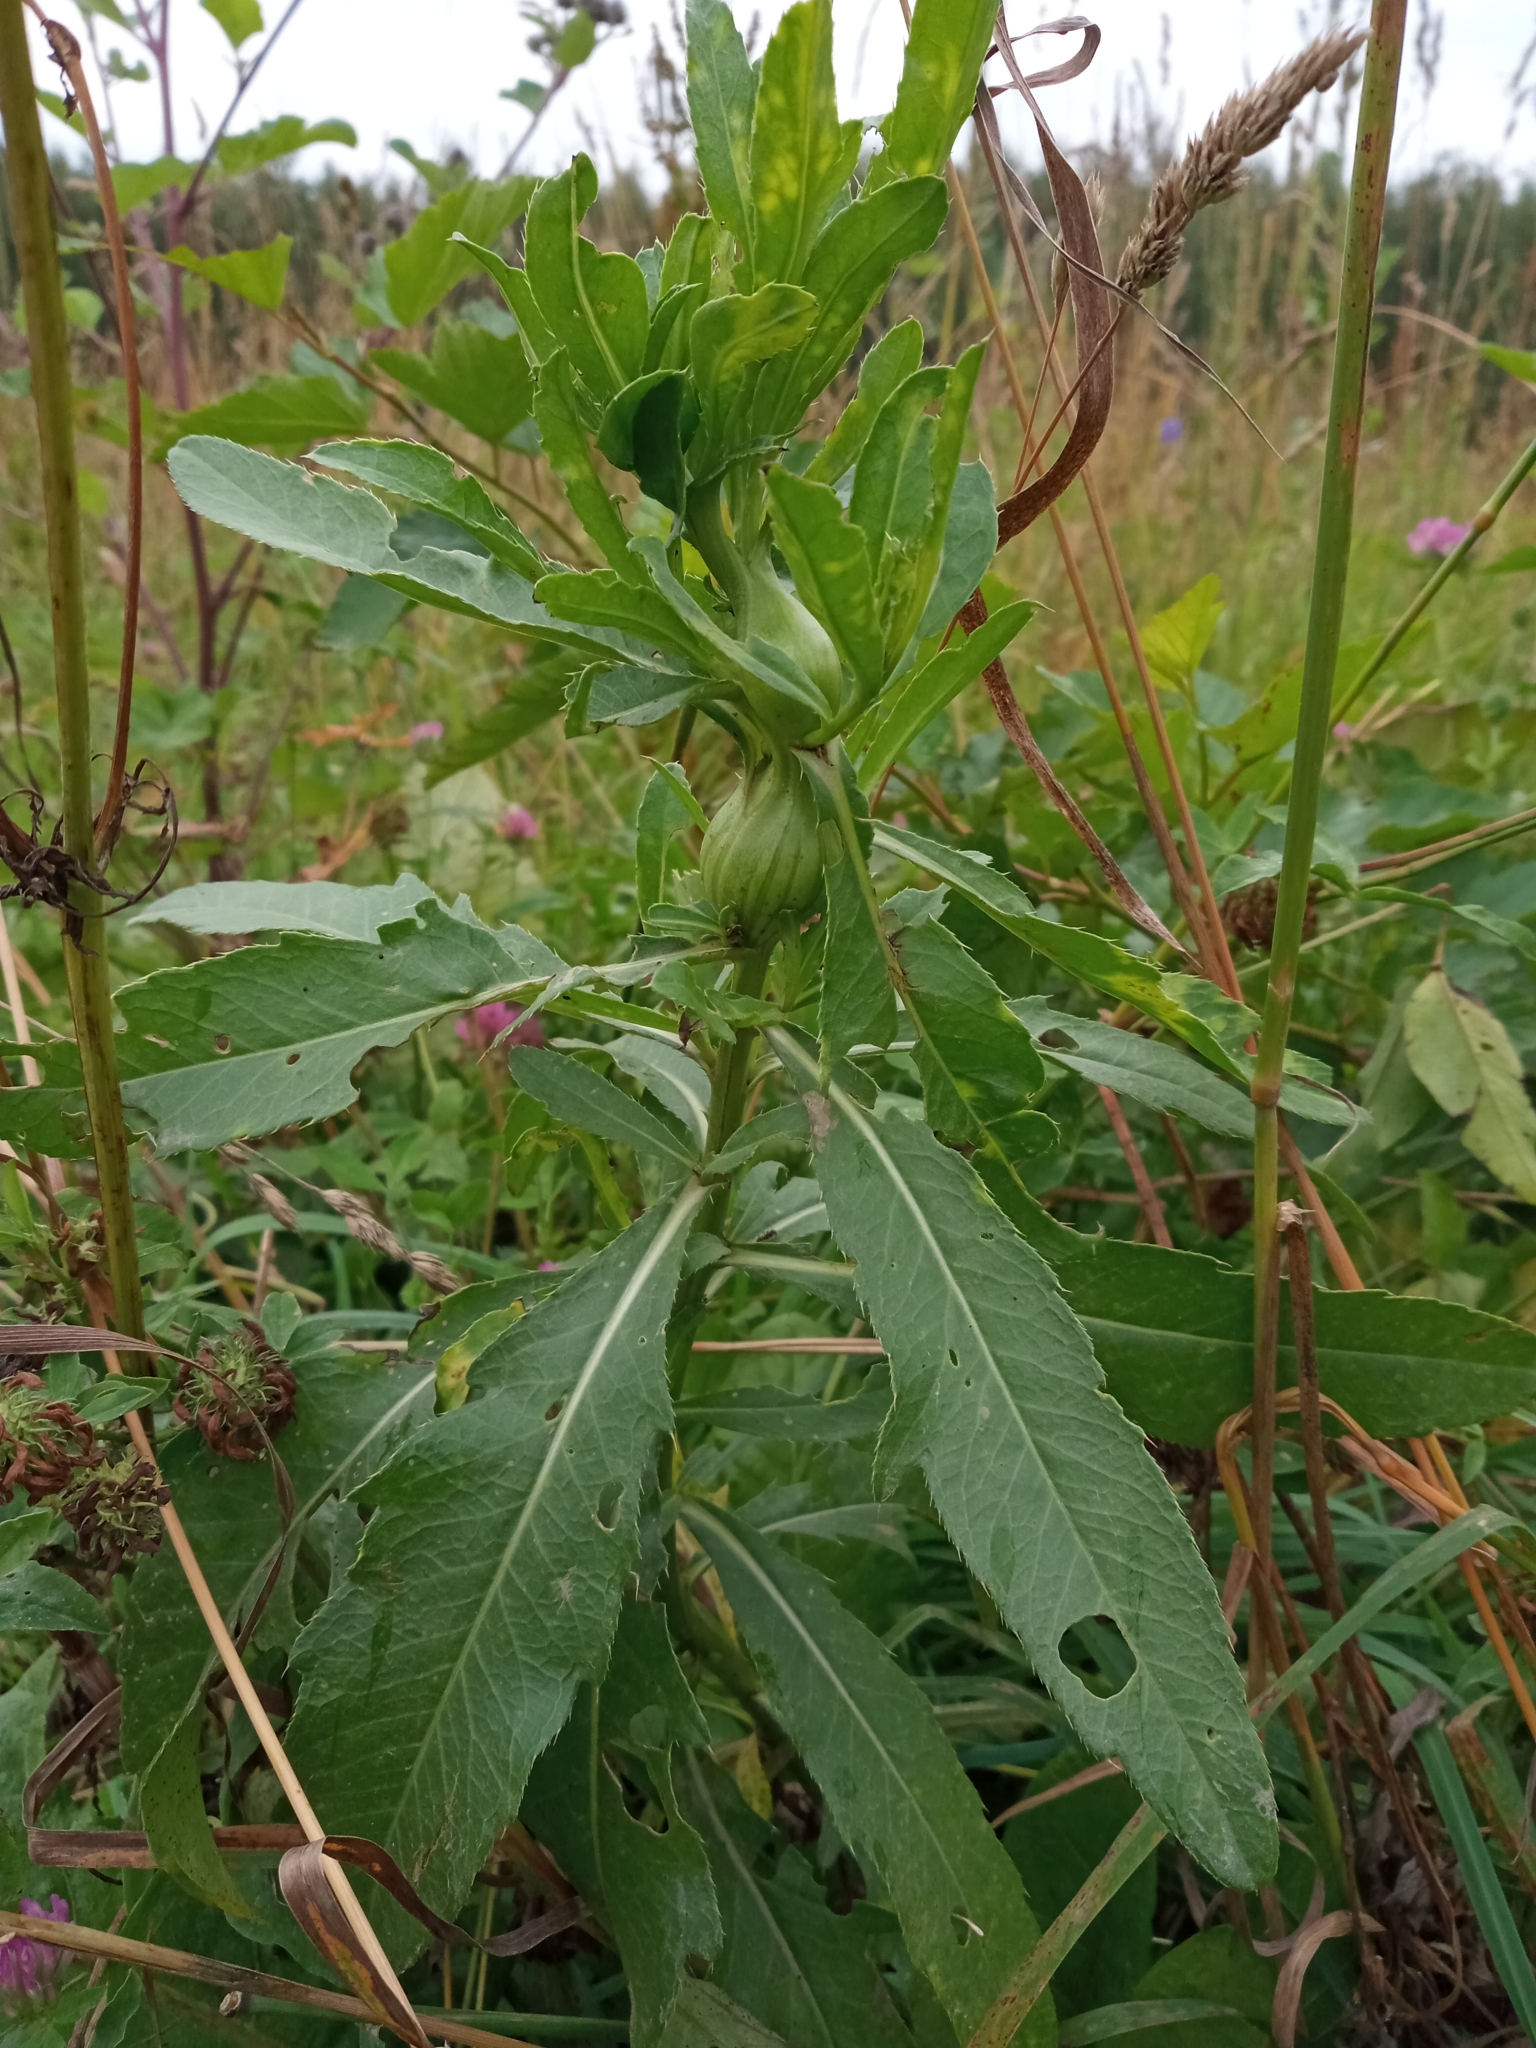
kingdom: Plantae
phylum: Tracheophyta
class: Magnoliopsida
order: Asterales
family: Asteraceae
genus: Cirsium
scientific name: Cirsium arvense
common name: Creeping thistle
